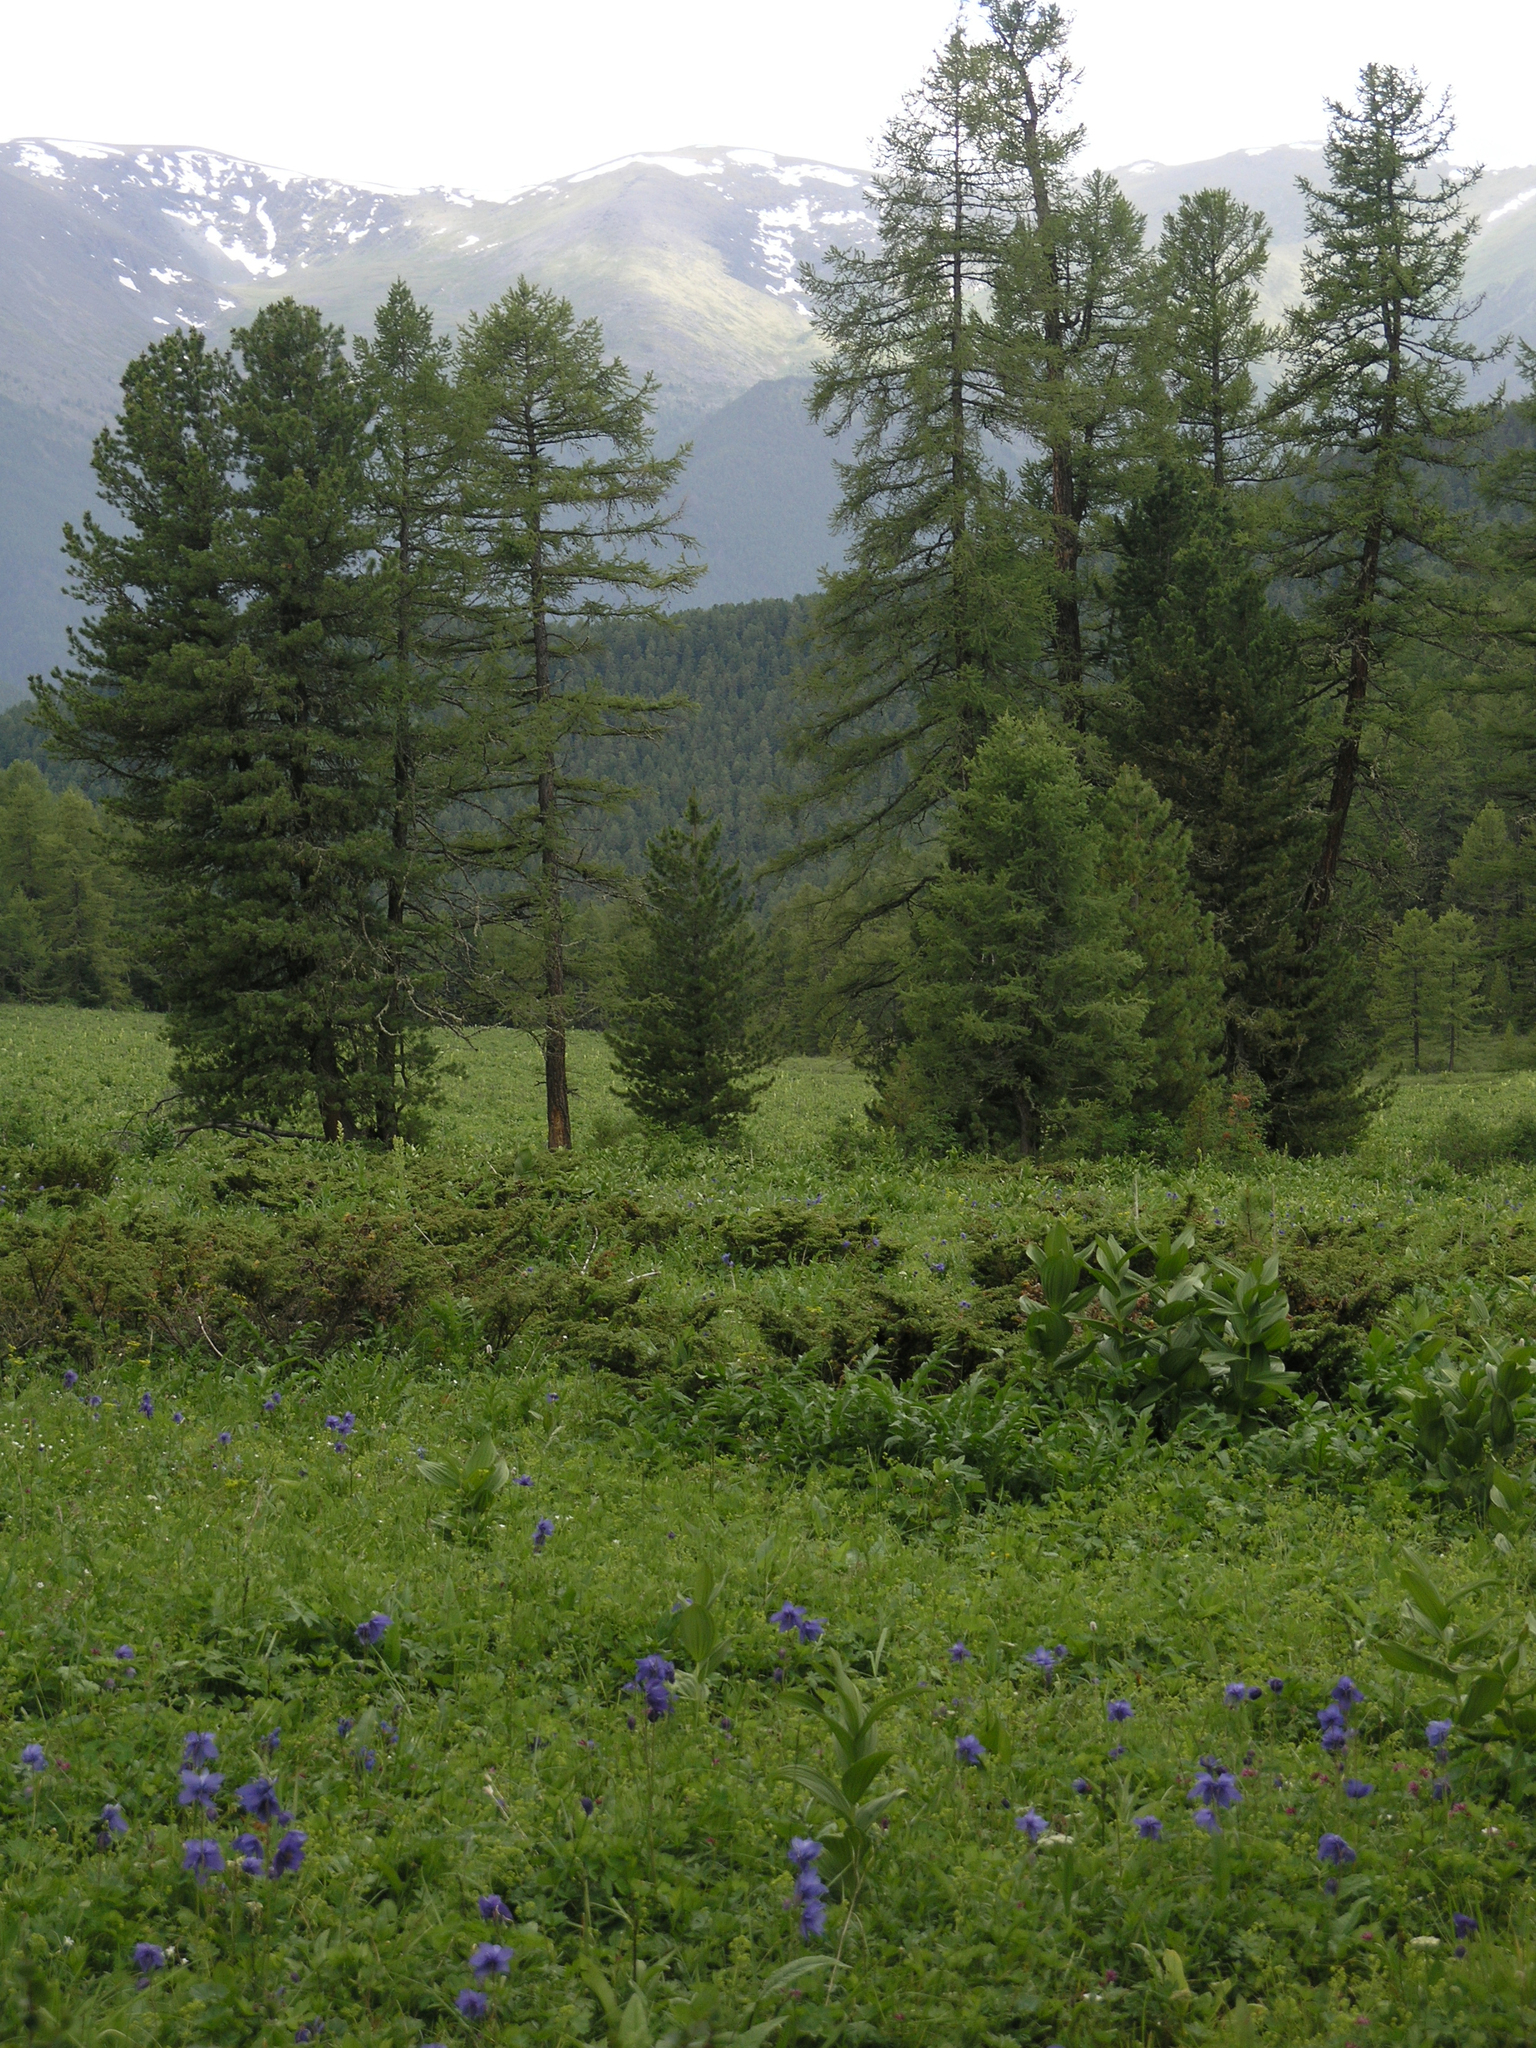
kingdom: Plantae
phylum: Tracheophyta
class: Magnoliopsida
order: Ranunculales
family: Ranunculaceae
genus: Aquilegia
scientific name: Aquilegia glandulosa
